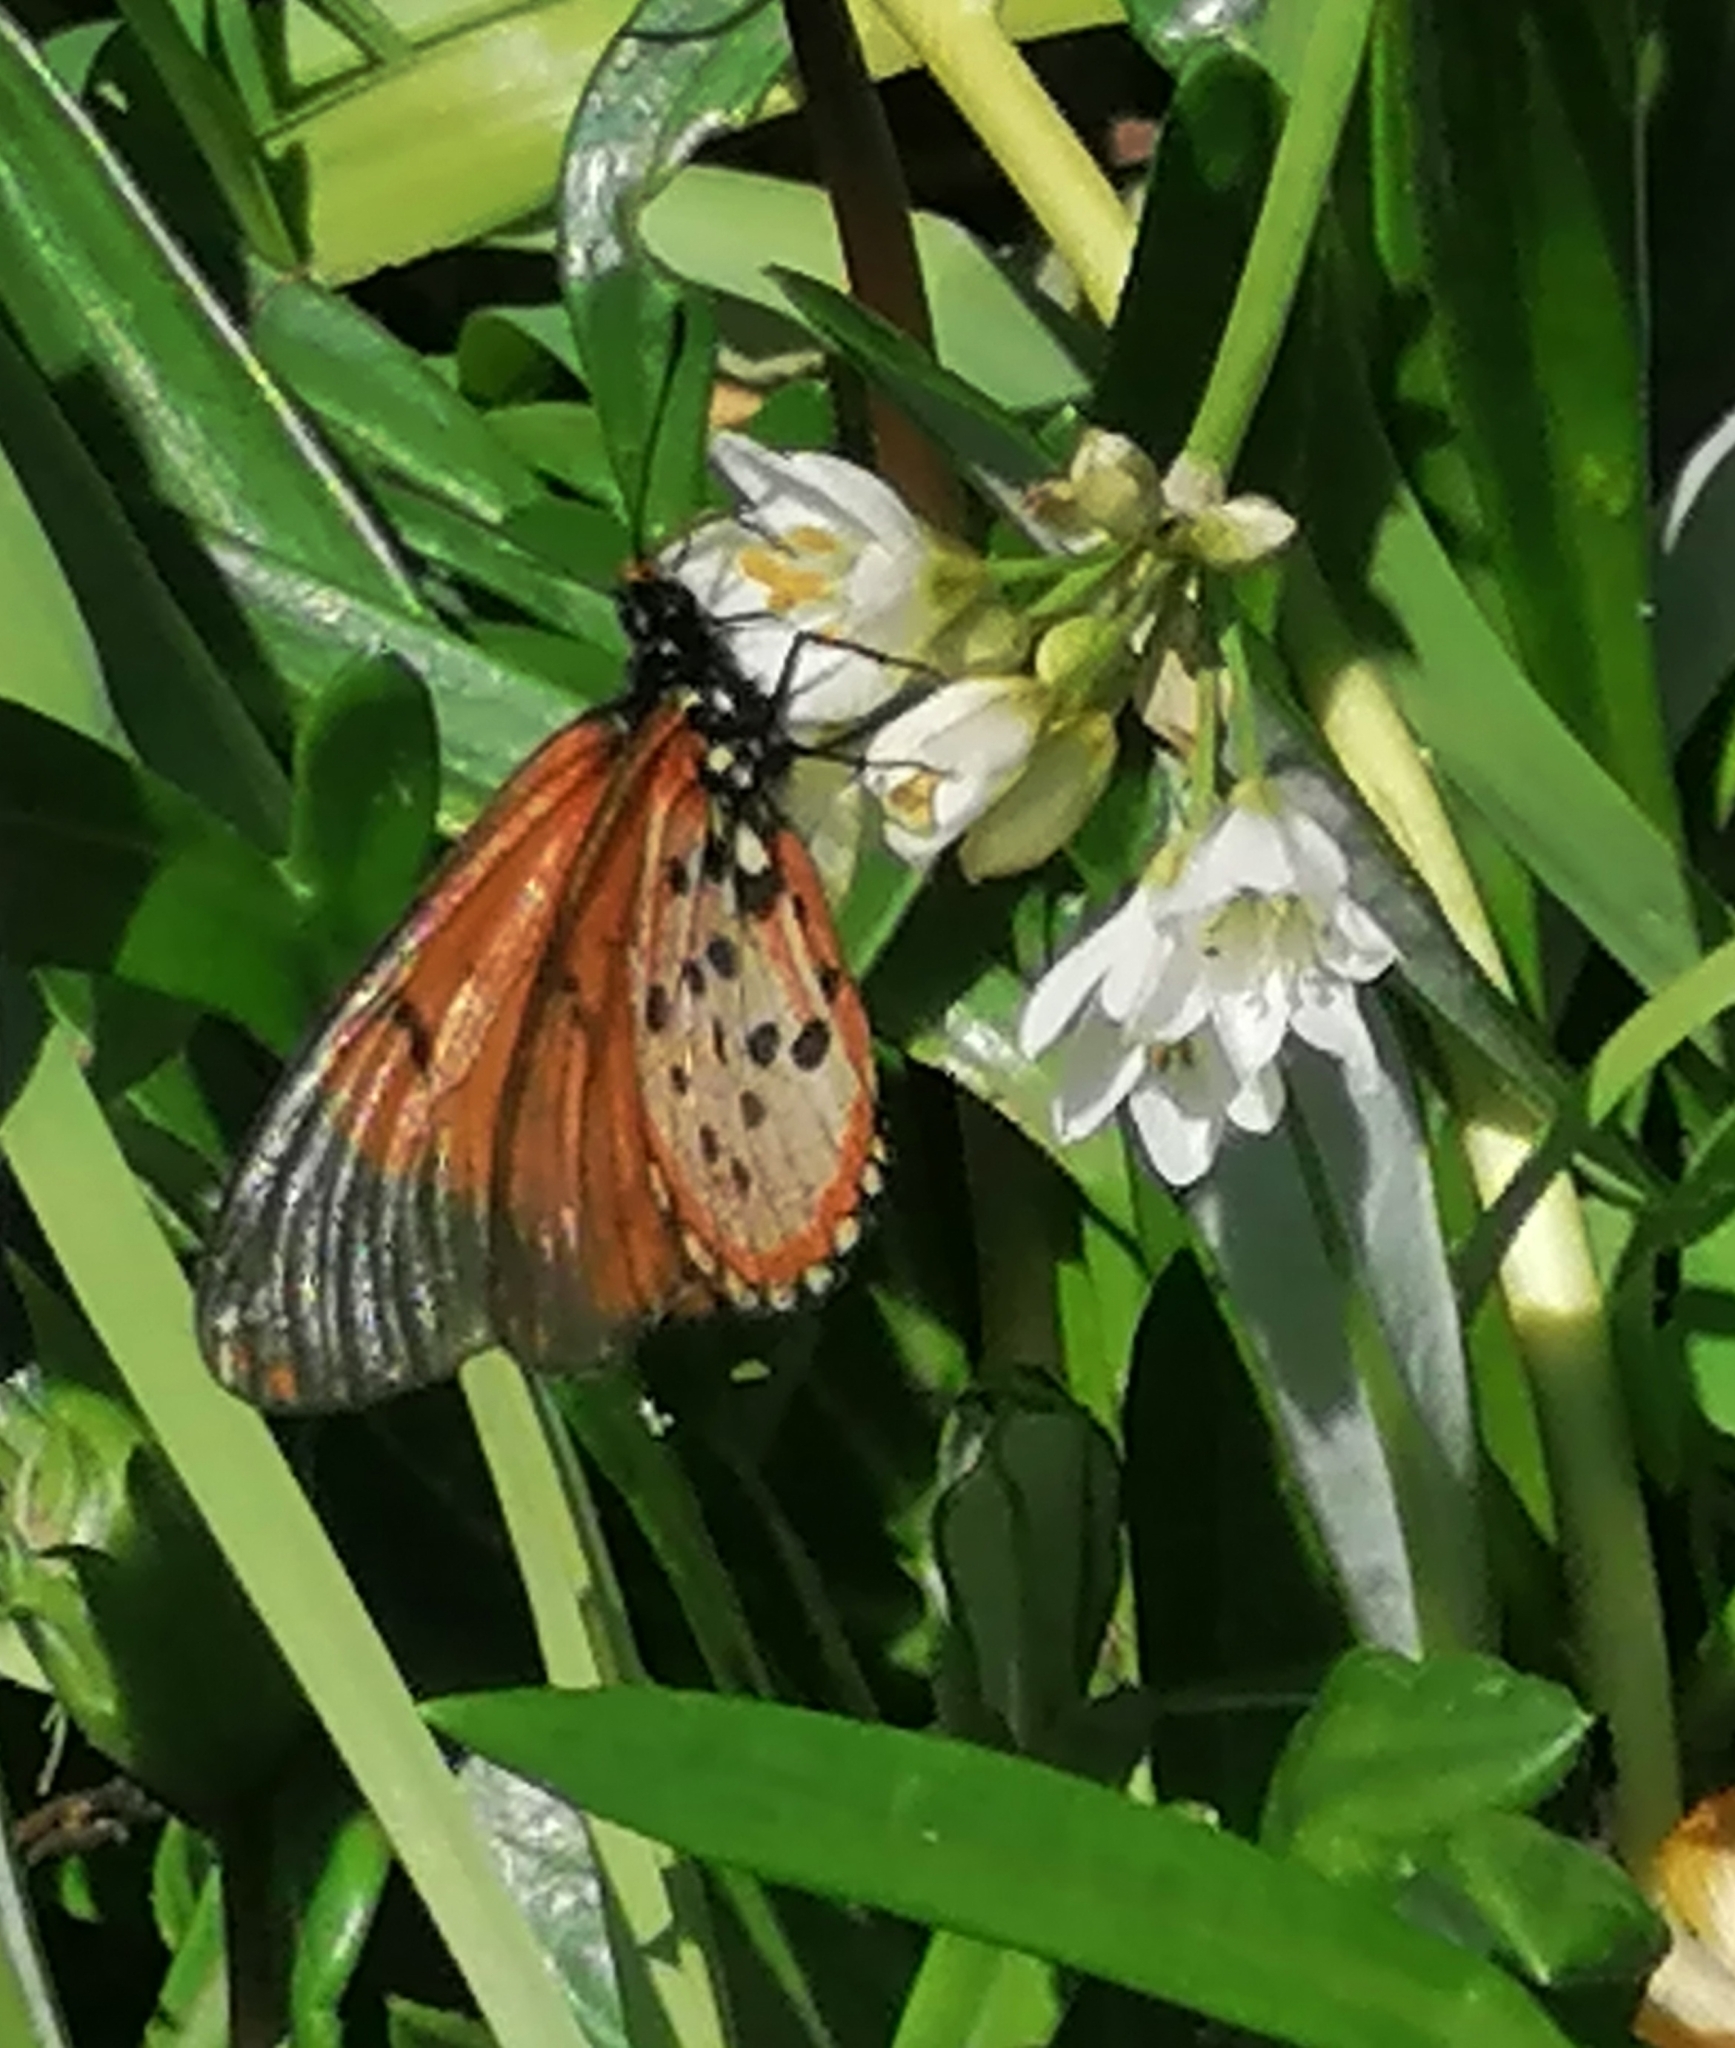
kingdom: Animalia
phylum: Arthropoda
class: Insecta
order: Lepidoptera
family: Nymphalidae
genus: Acraea
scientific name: Acraea horta
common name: Garden acraea
